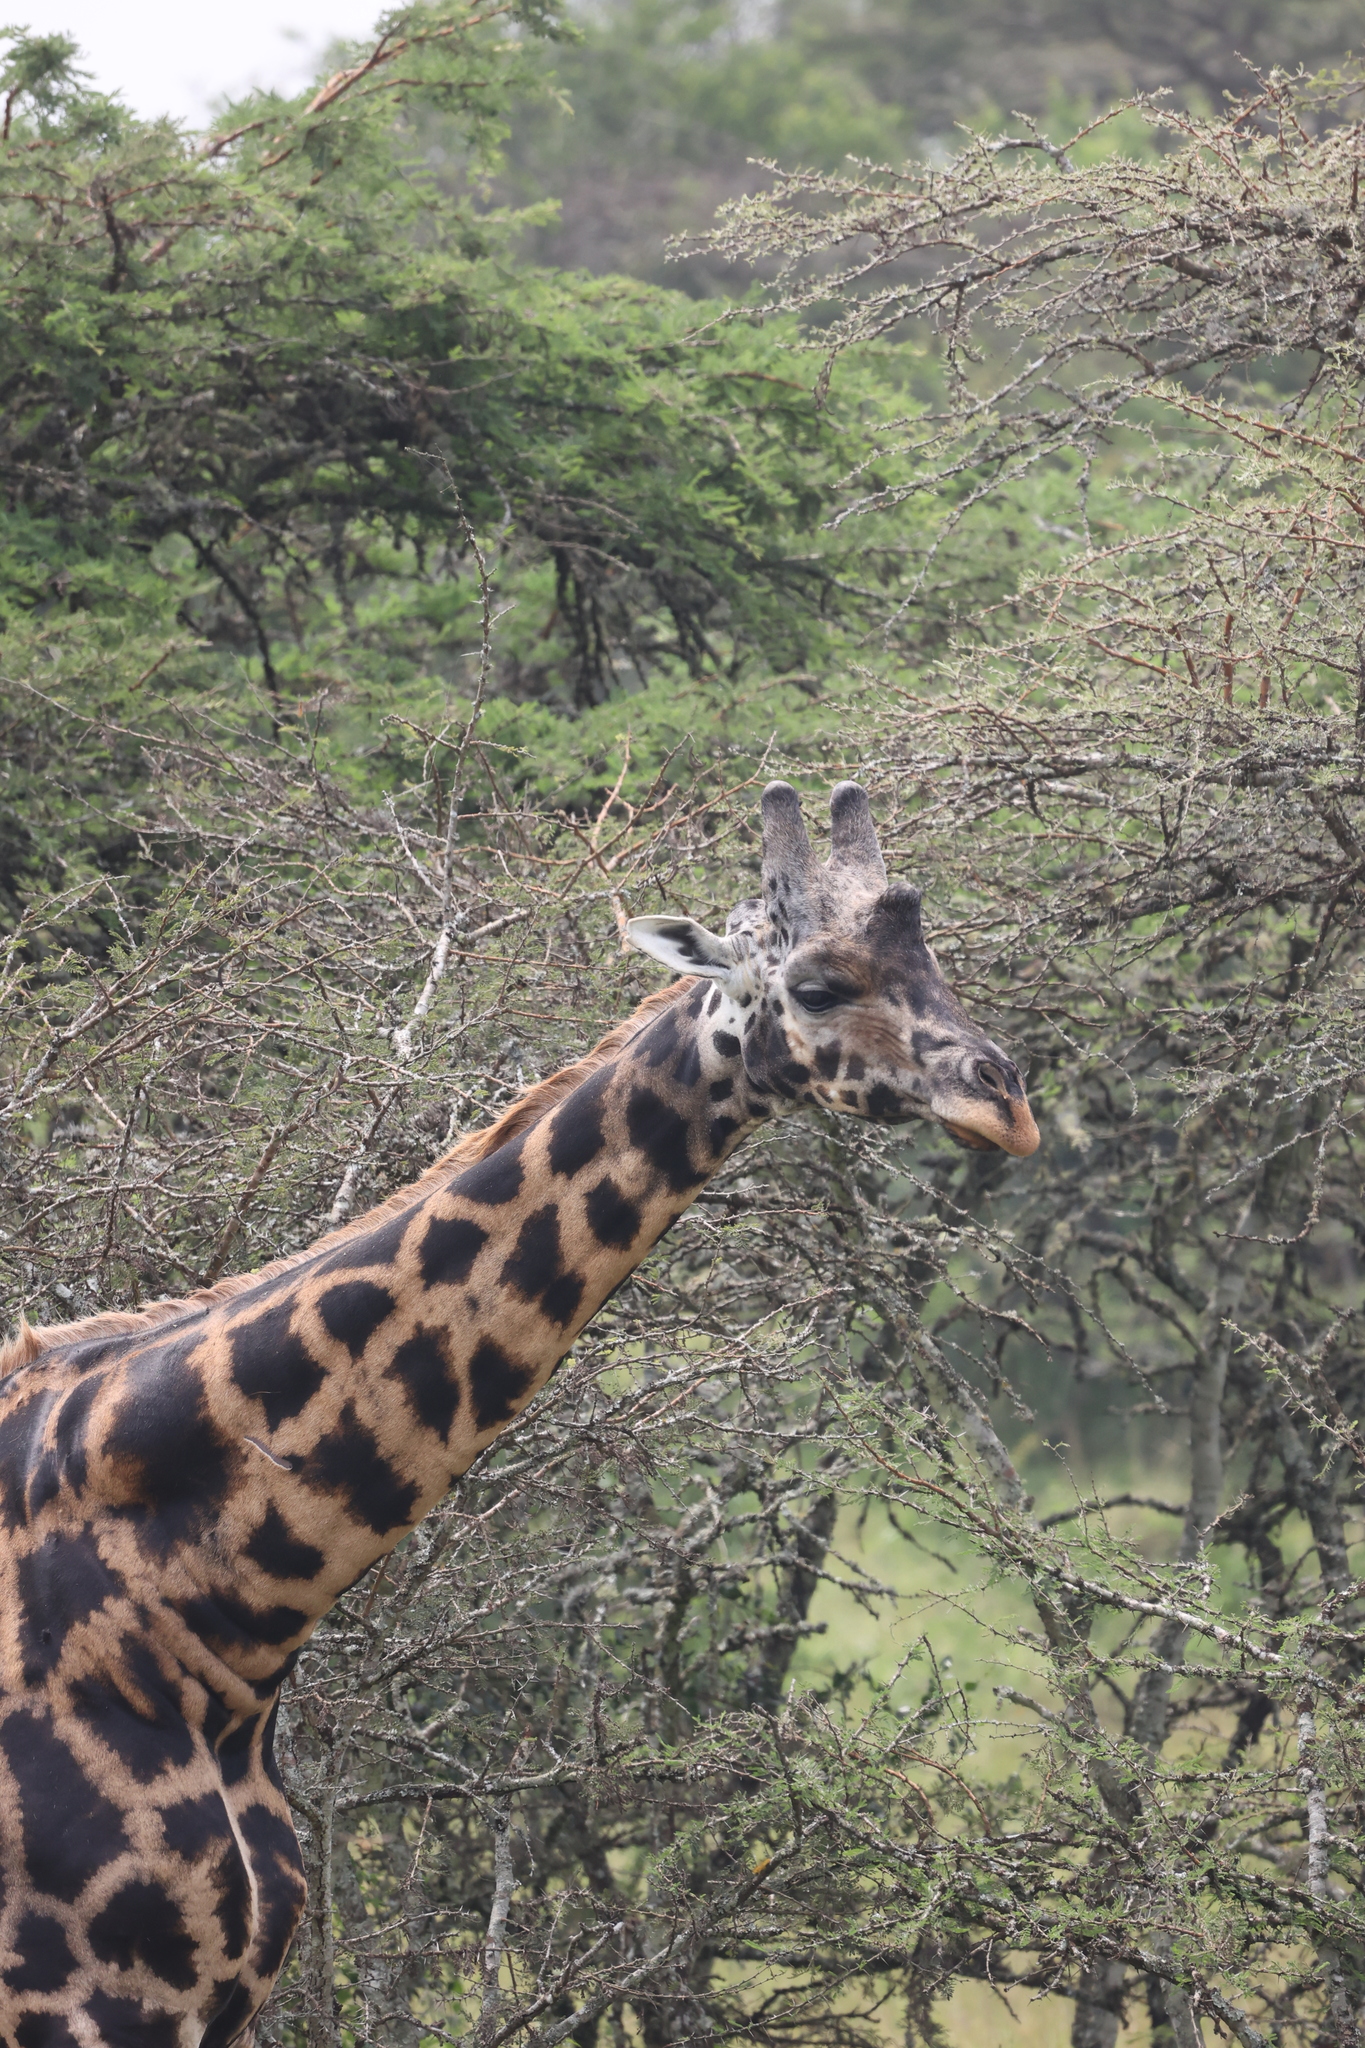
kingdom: Animalia
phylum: Chordata
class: Mammalia
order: Artiodactyla
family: Giraffidae
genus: Giraffa
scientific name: Giraffa camelopardalis
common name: Giraffe
